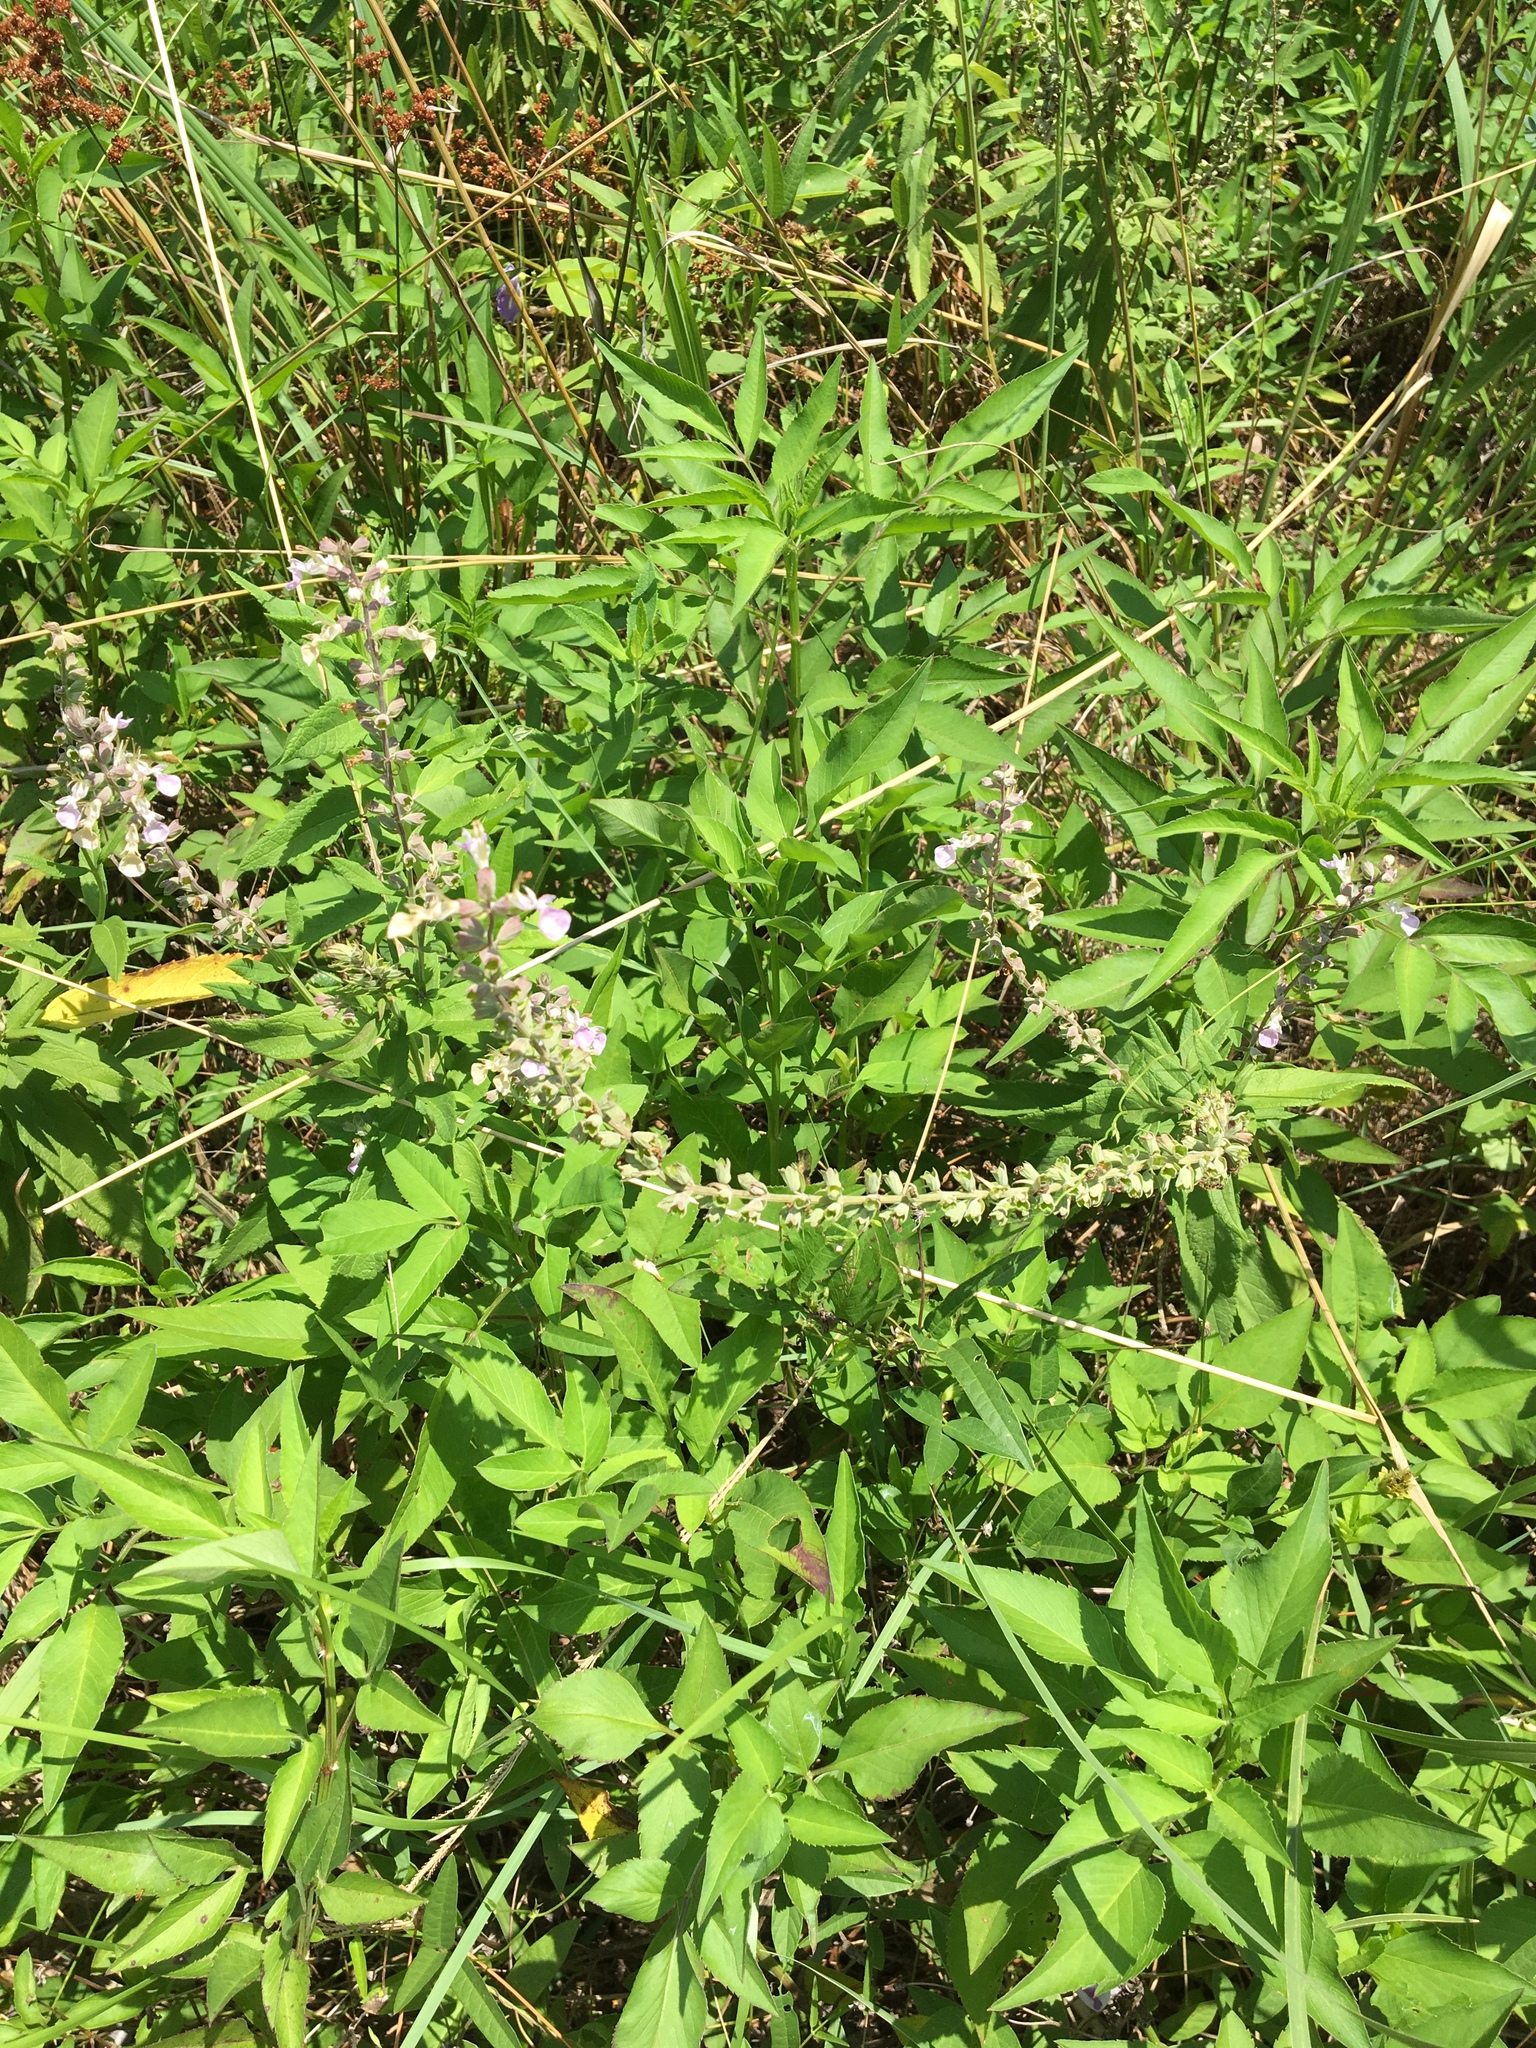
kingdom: Plantae
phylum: Tracheophyta
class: Magnoliopsida
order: Lamiales
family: Lamiaceae
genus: Teucrium
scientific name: Teucrium canadense
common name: American germander
